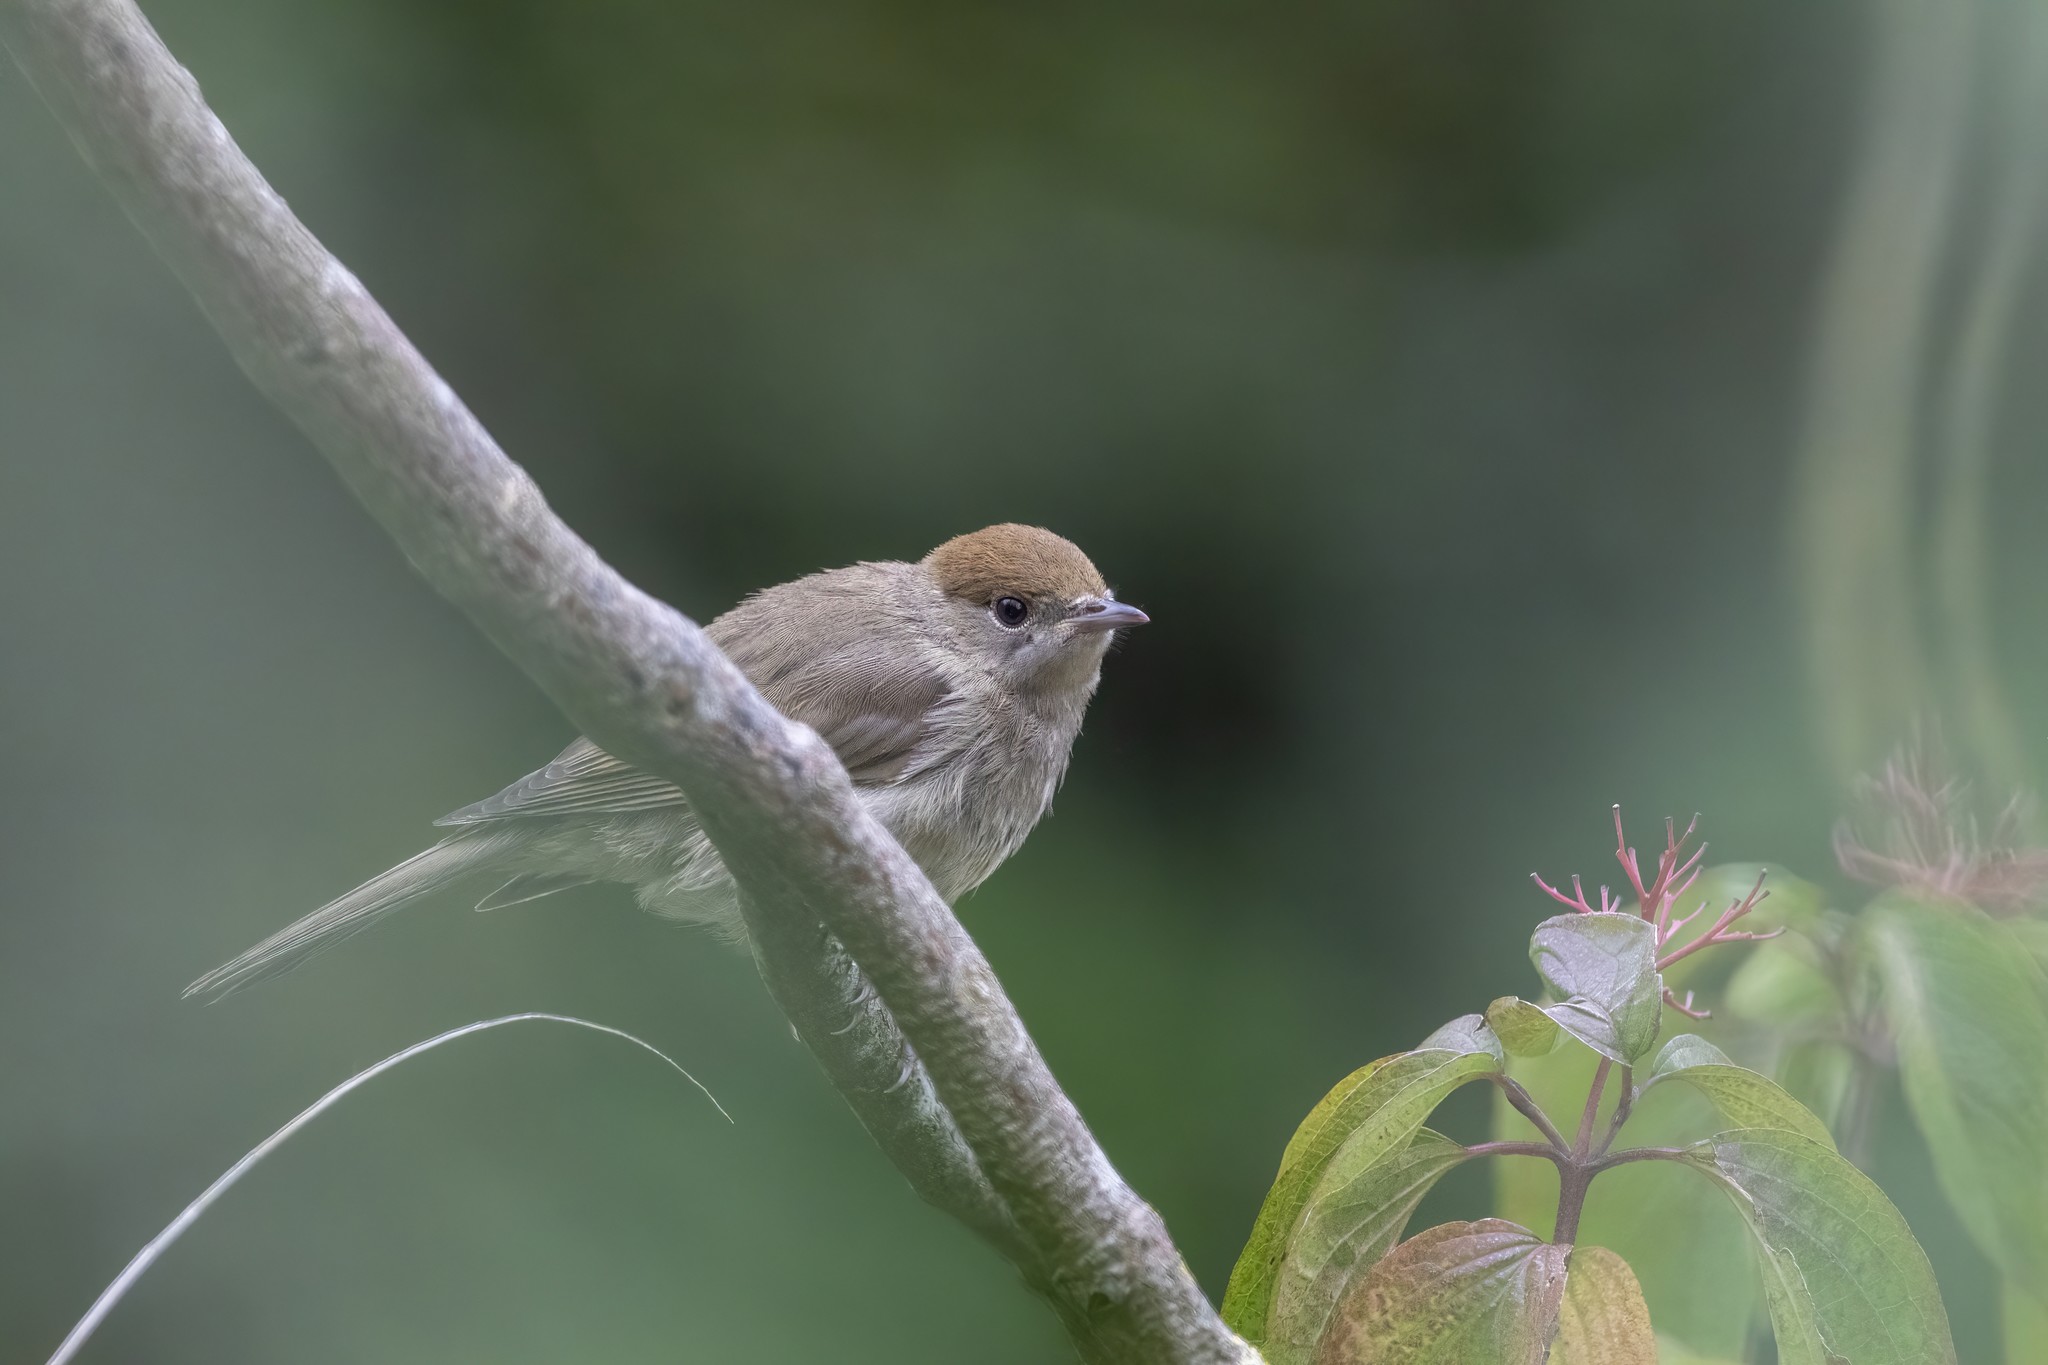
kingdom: Animalia
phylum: Chordata
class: Aves
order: Passeriformes
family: Sylviidae
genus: Sylvia
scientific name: Sylvia atricapilla
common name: Eurasian blackcap
